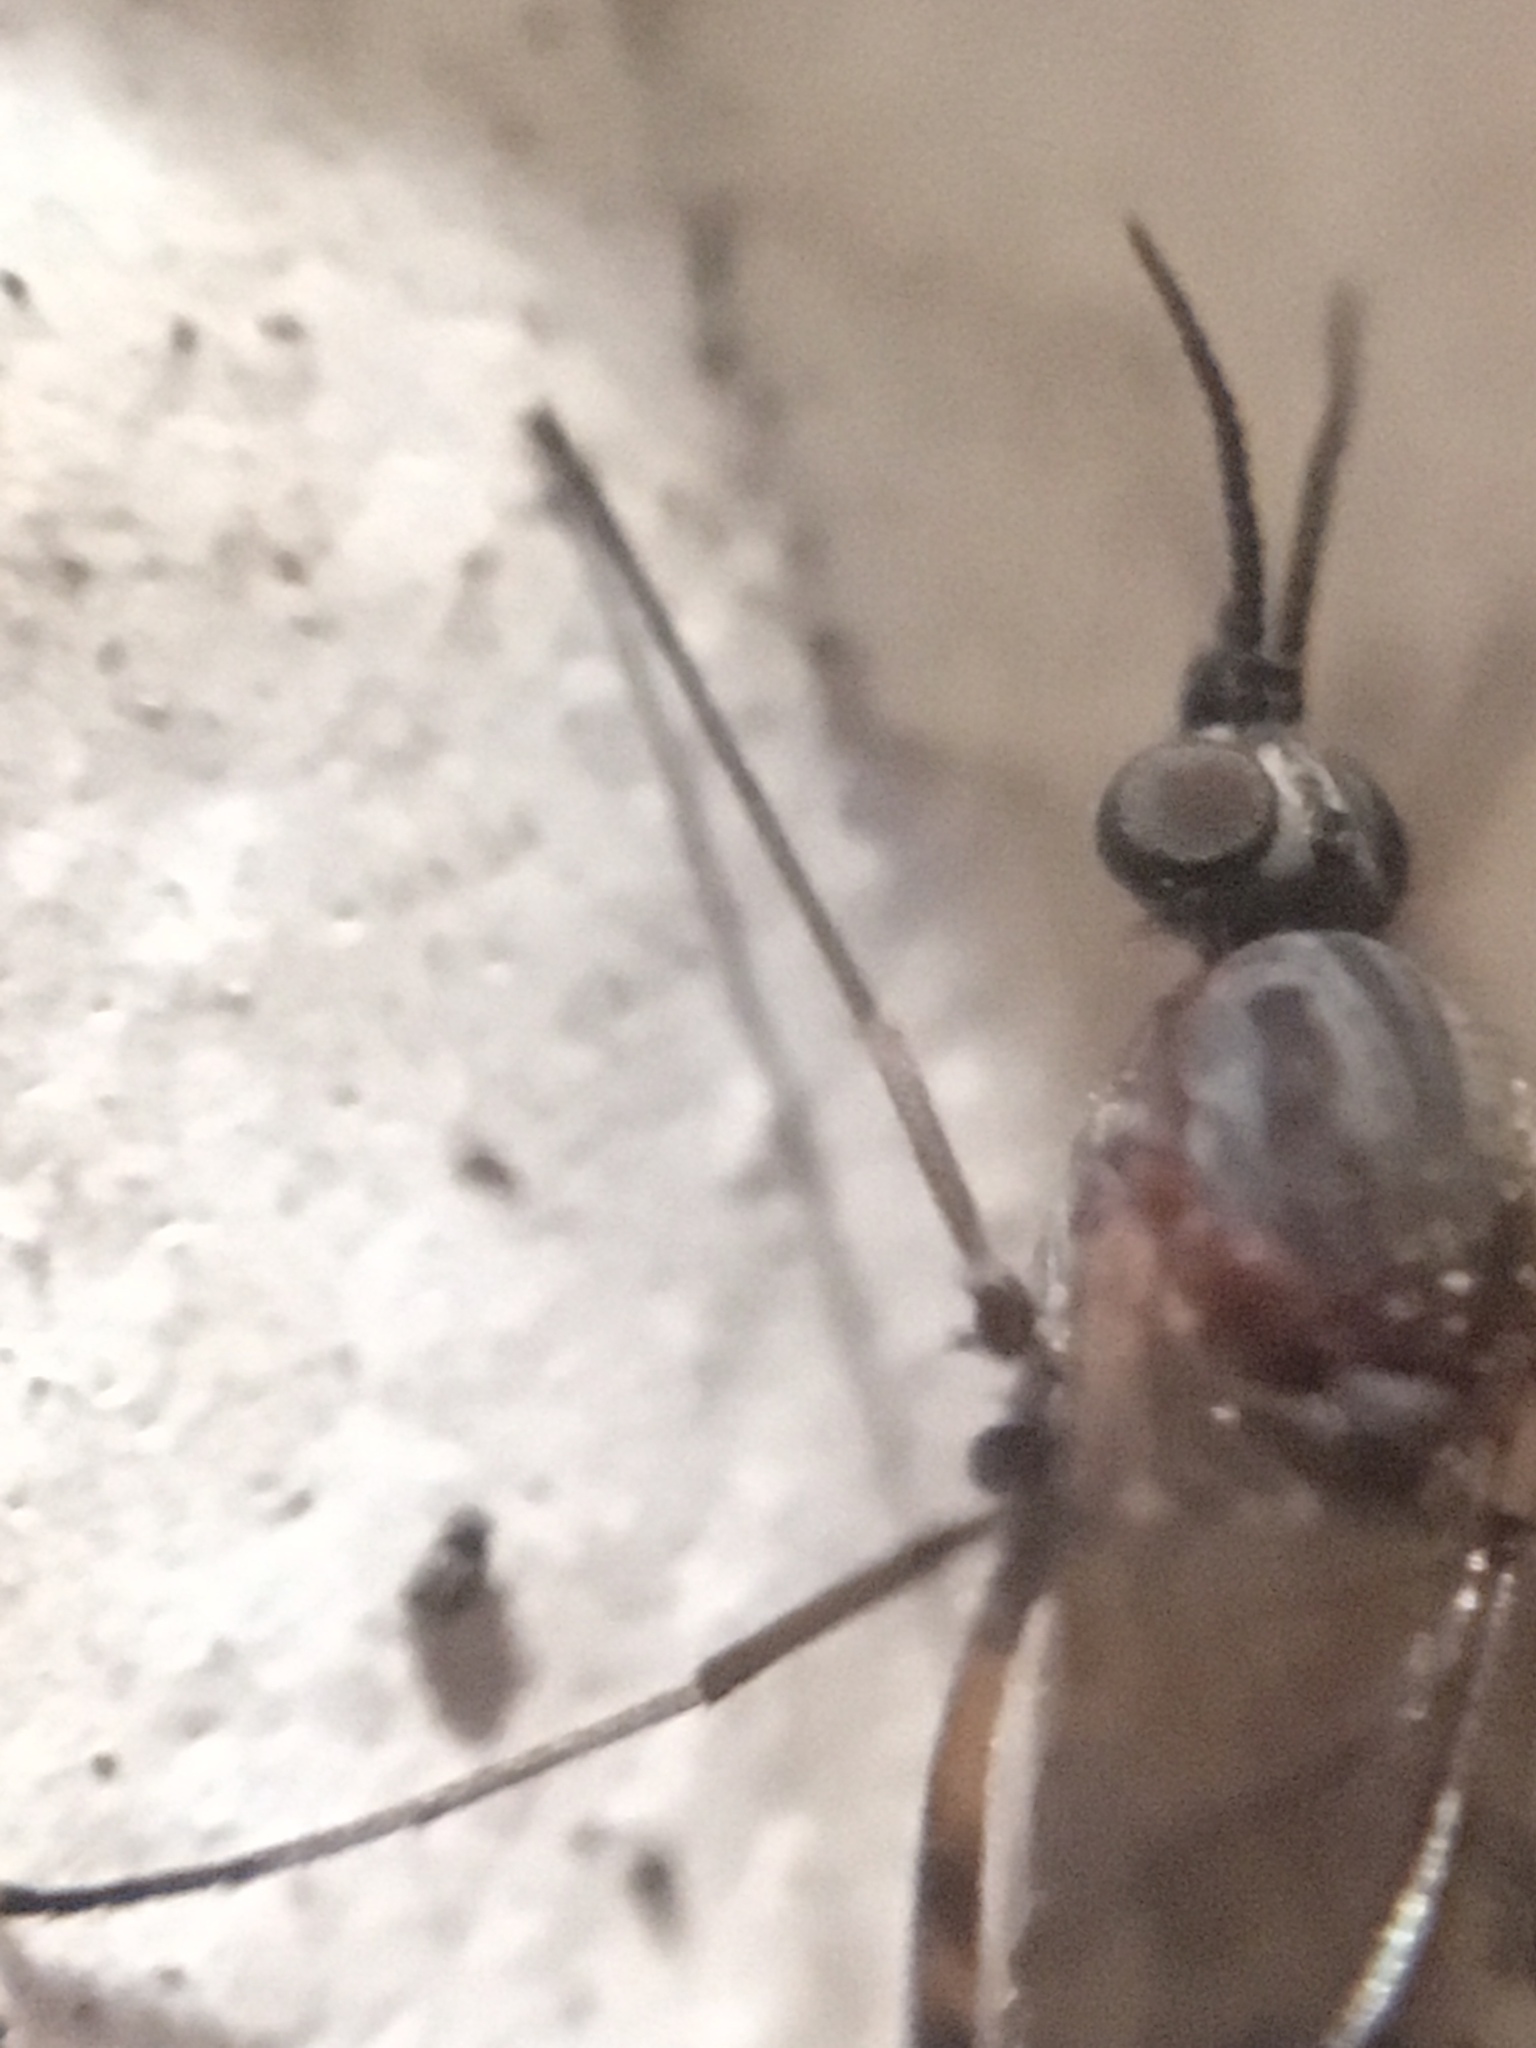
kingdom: Animalia
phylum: Arthropoda
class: Insecta
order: Diptera
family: Anisopodidae
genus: Sylvicola
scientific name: Sylvicola alternata
